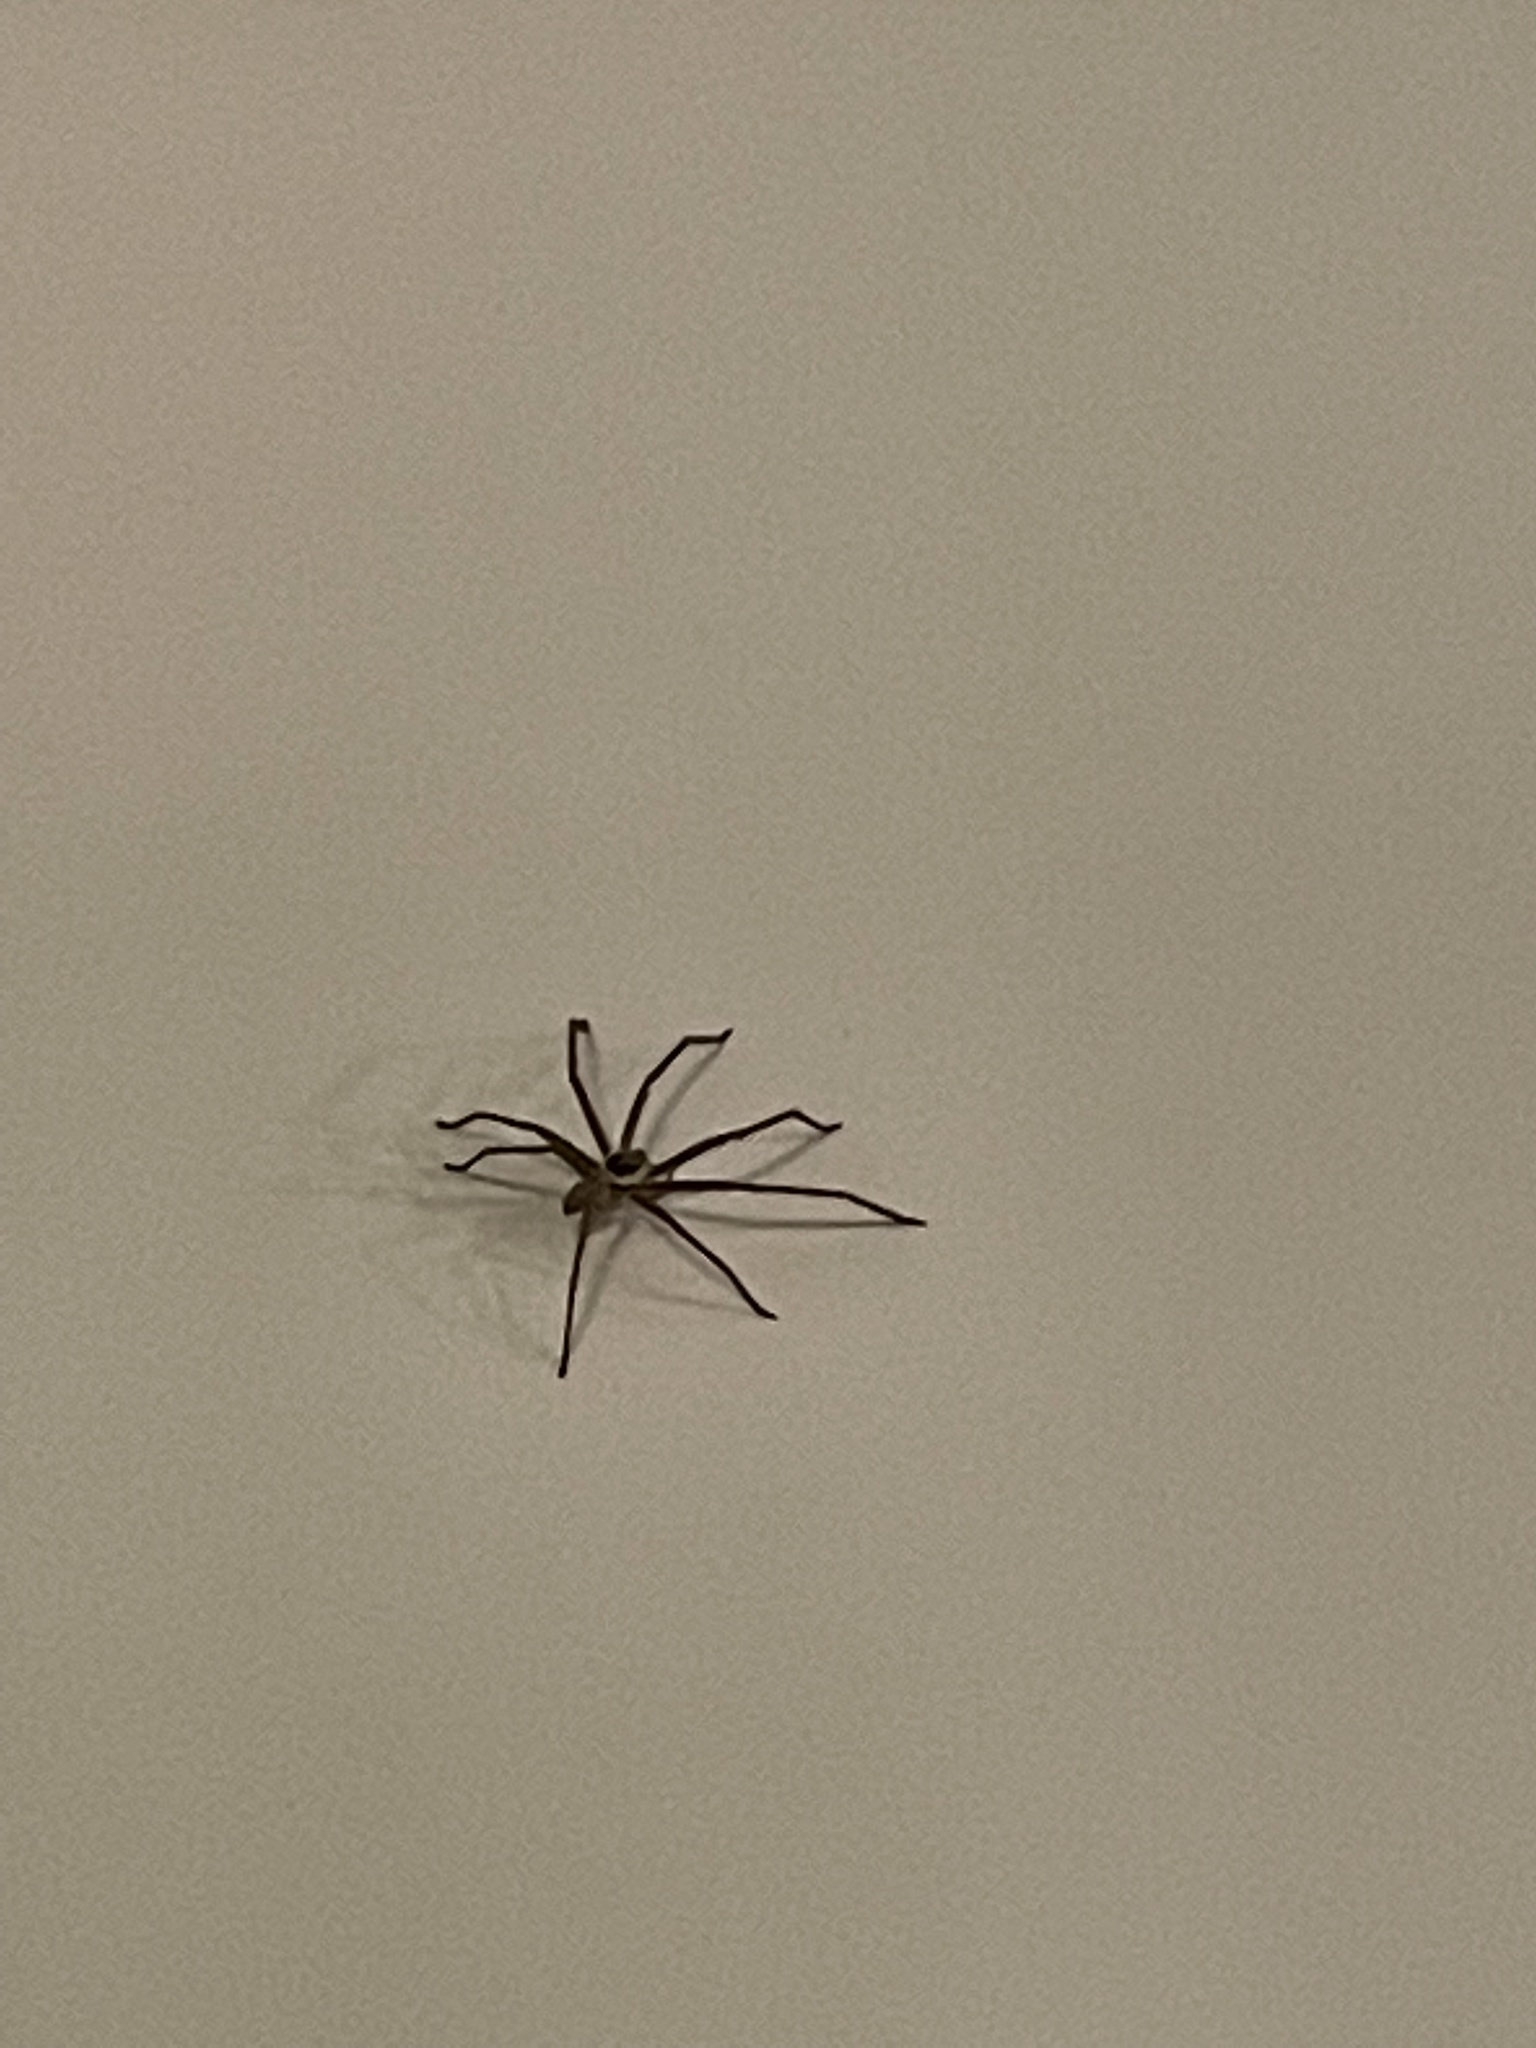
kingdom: Animalia
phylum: Arthropoda
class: Arachnida
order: Araneae
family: Sparassidae
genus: Heteropoda
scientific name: Heteropoda venatoria
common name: Huntsman spider
